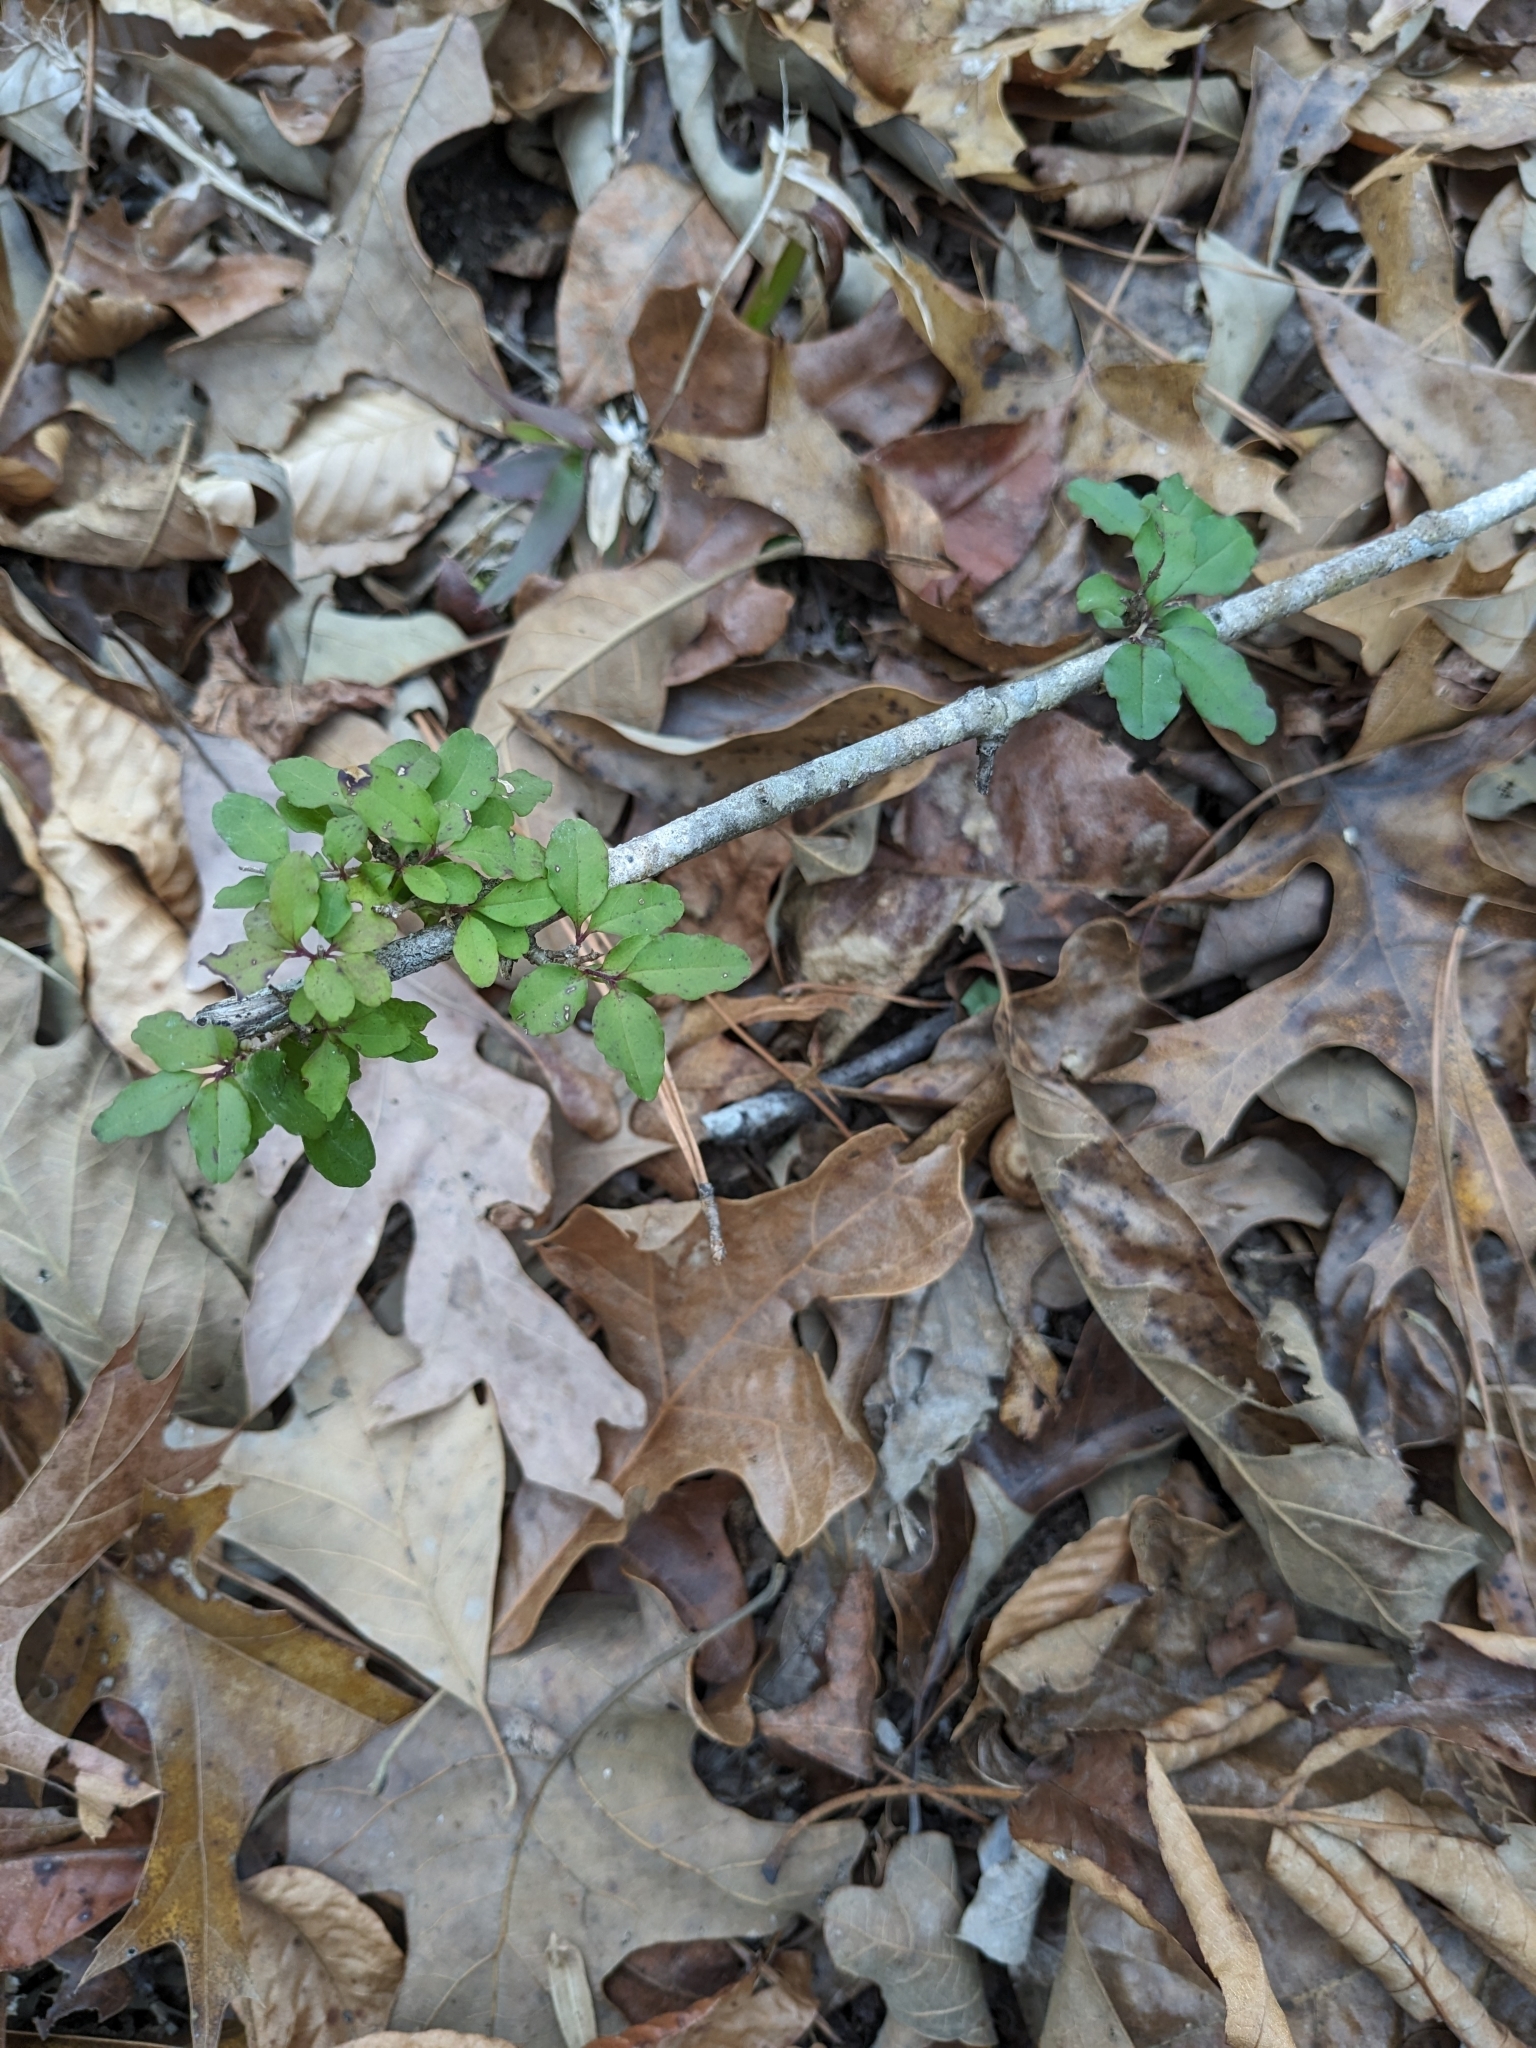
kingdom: Plantae
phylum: Tracheophyta
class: Magnoliopsida
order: Lamiales
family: Oleaceae
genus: Ligustrum
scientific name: Ligustrum sinense
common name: Chinese privet
